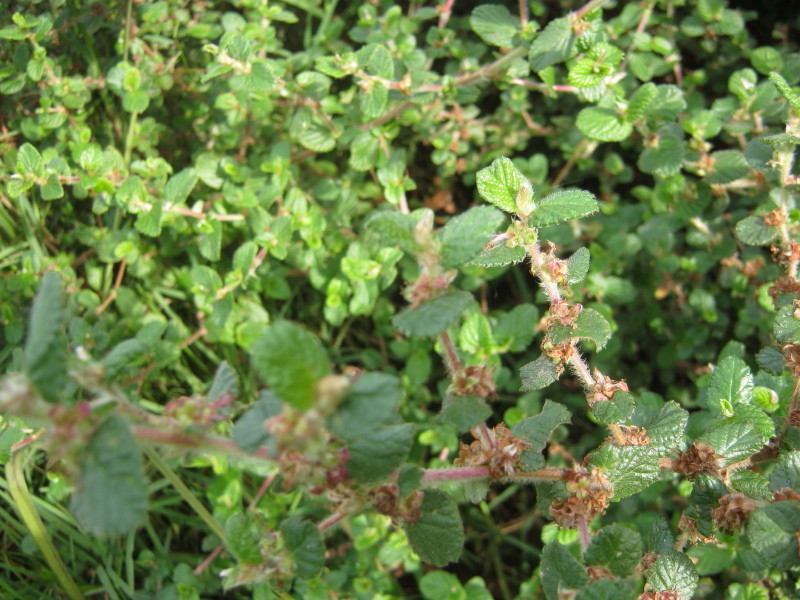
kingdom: Plantae
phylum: Tracheophyta
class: Magnoliopsida
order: Rosales
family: Rosaceae
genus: Cliffortia
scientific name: Cliffortia odorata
